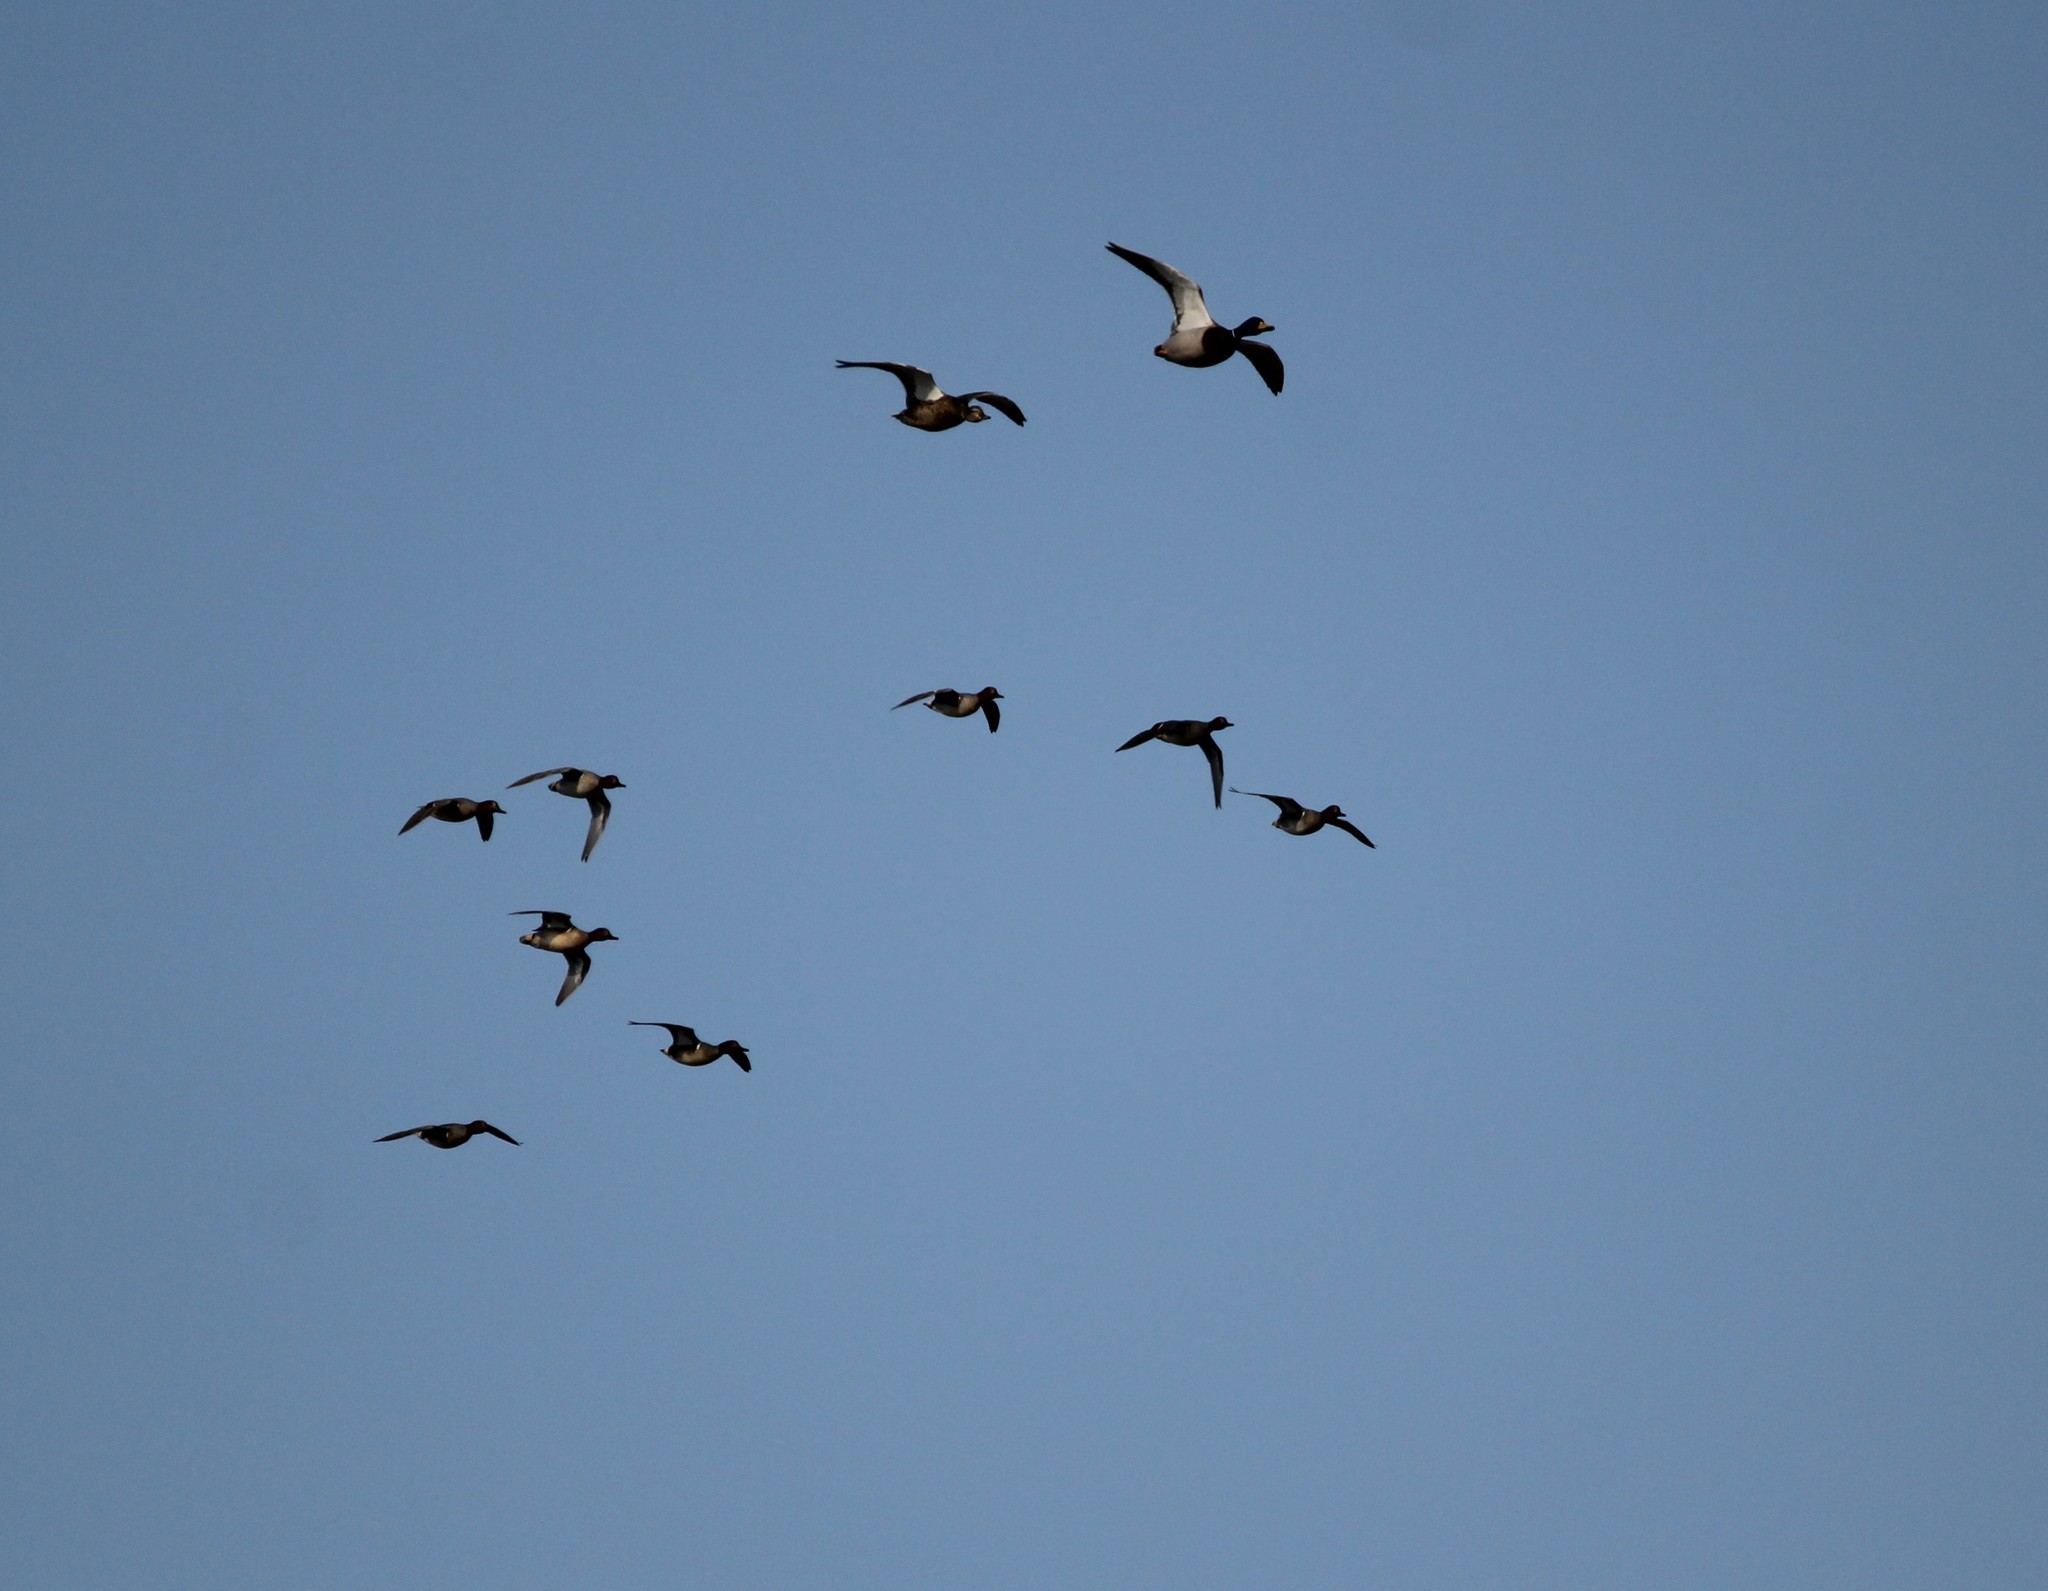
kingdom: Animalia
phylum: Chordata
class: Aves
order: Anseriformes
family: Anatidae
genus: Anas
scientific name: Anas crecca
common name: Eurasian teal
